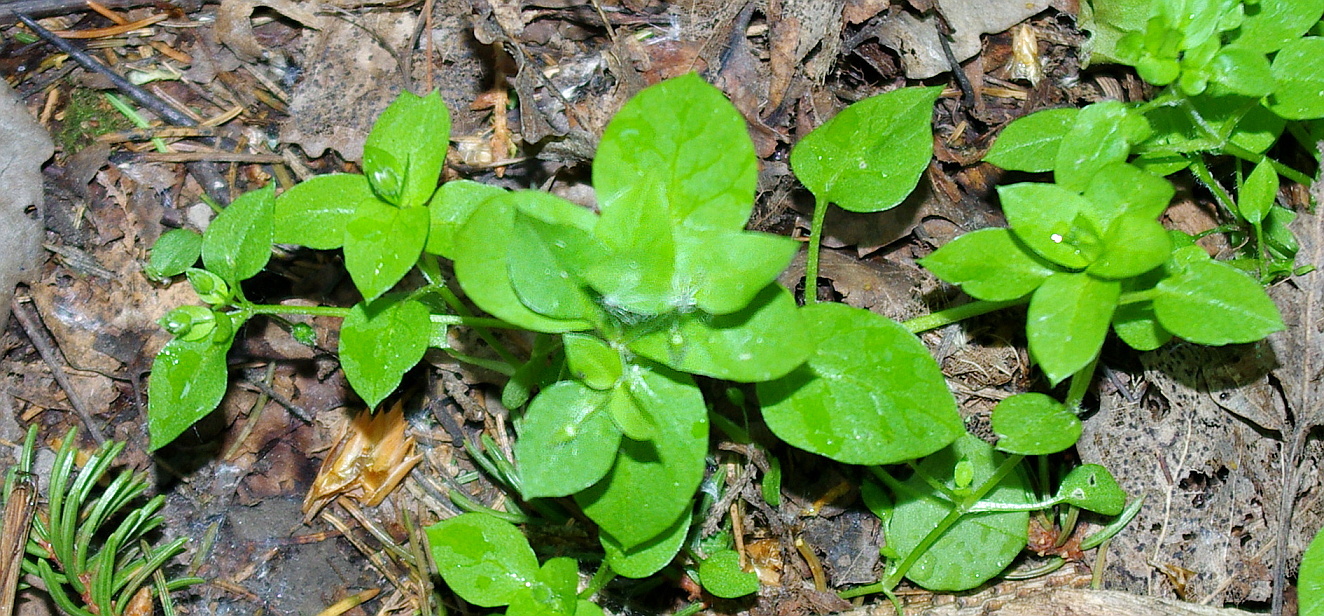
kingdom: Plantae
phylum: Tracheophyta
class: Magnoliopsida
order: Caryophyllales
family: Caryophyllaceae
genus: Stellaria
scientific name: Stellaria media
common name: Common chickweed
